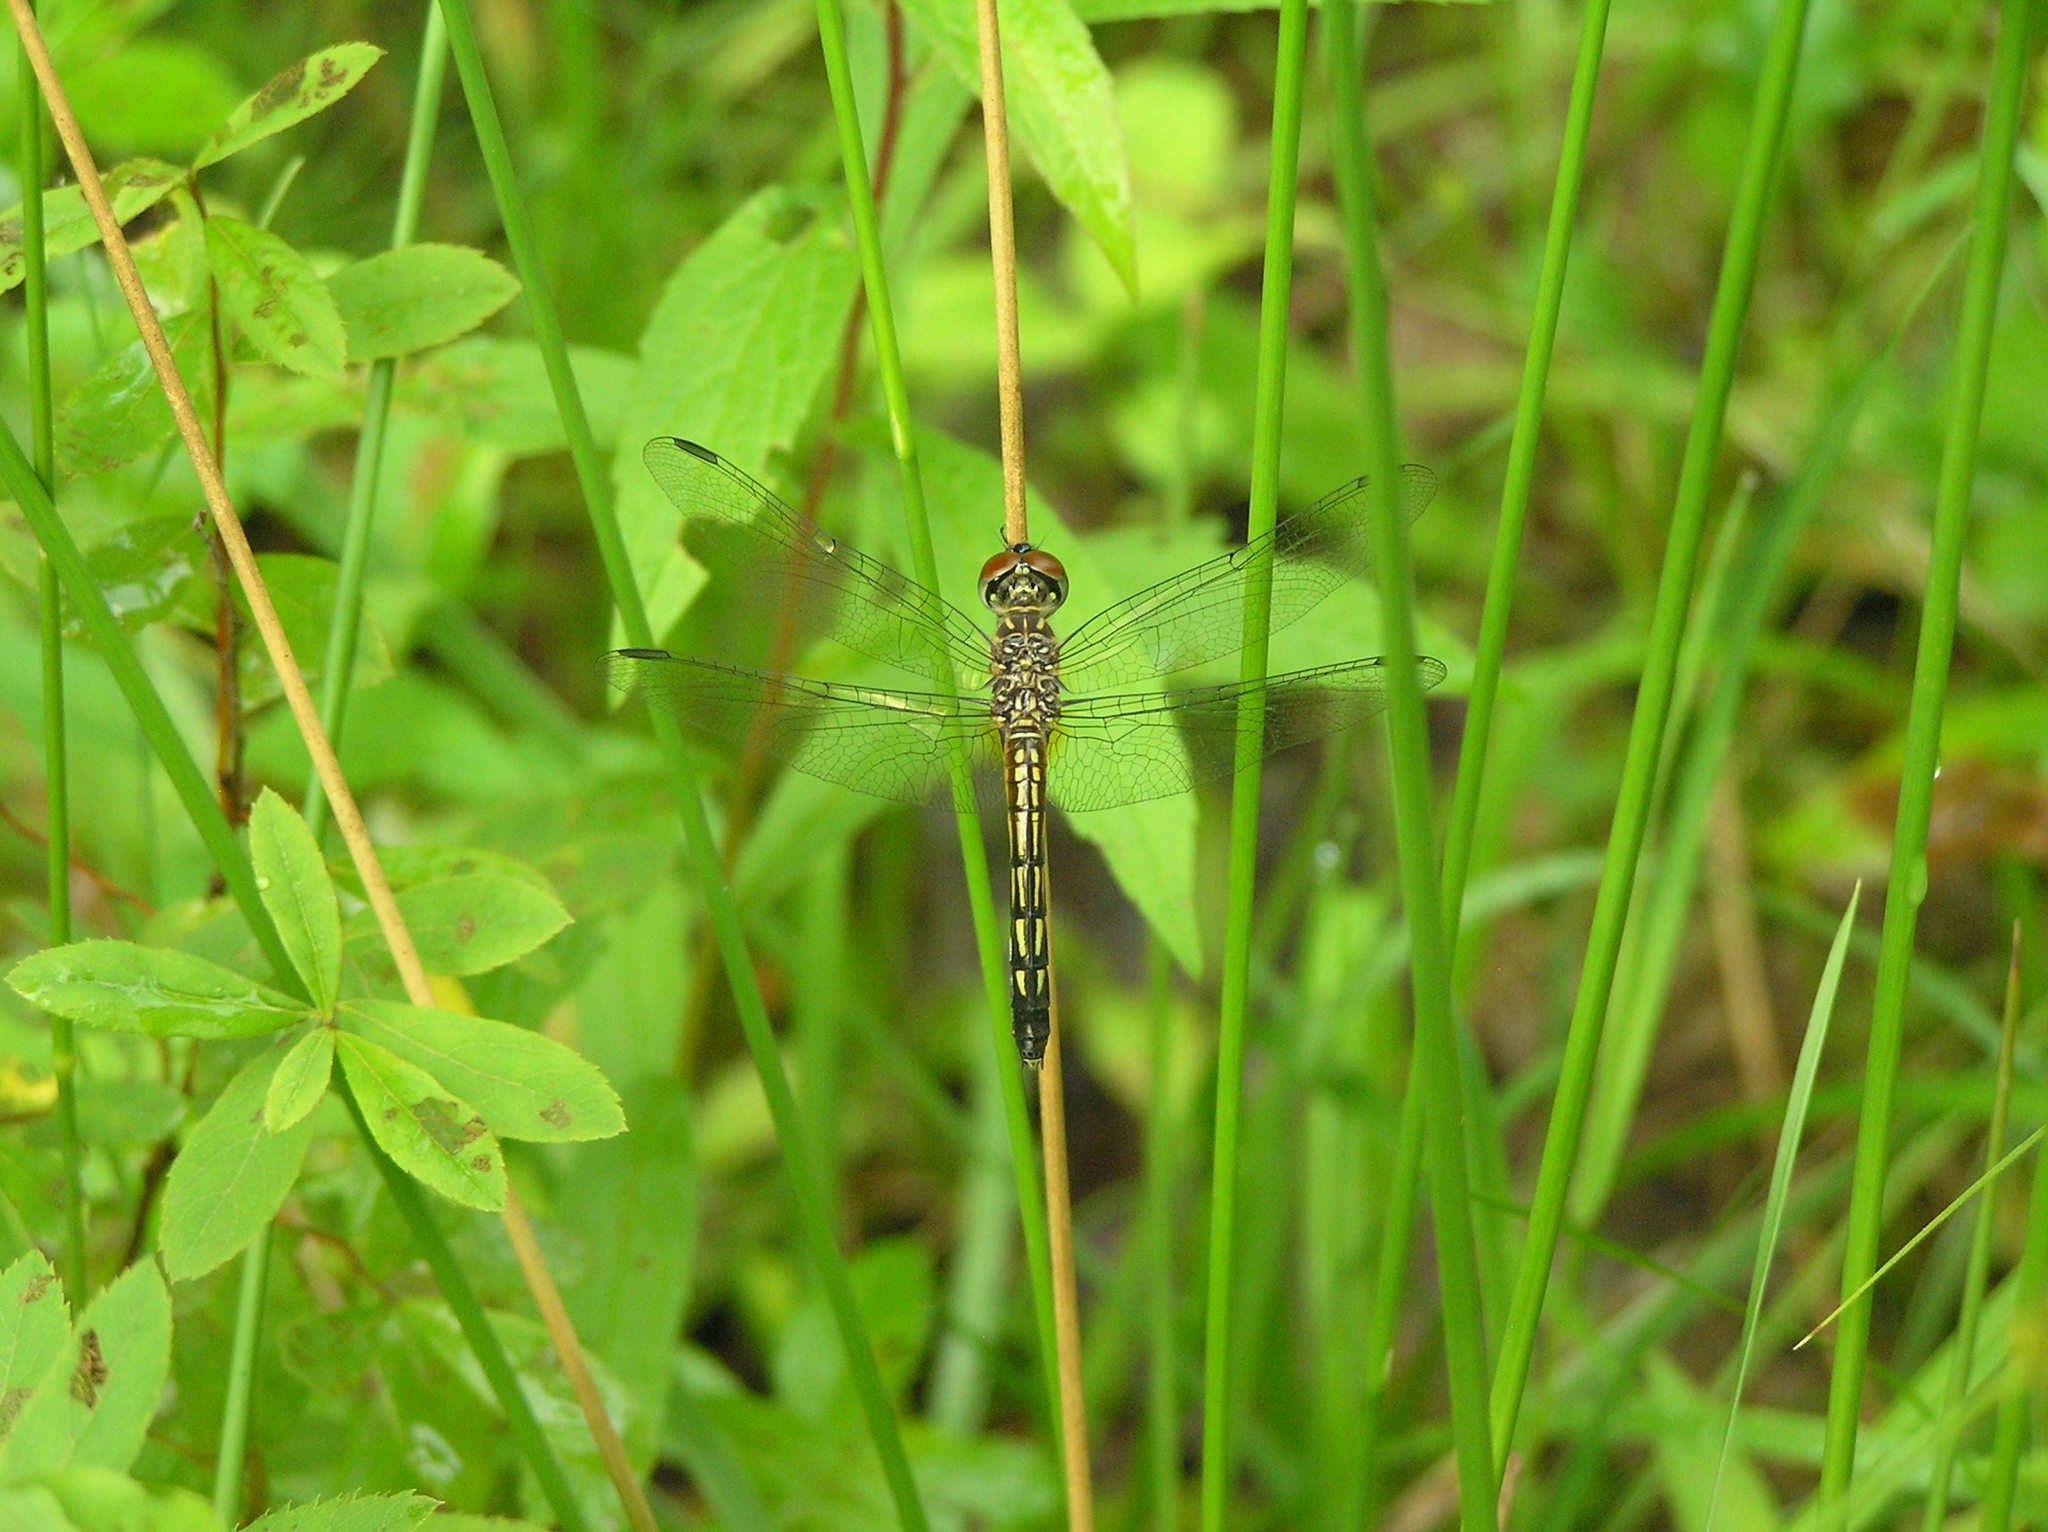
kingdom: Animalia
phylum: Arthropoda
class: Insecta
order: Odonata
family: Libellulidae
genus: Pachydiplax
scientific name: Pachydiplax longipennis
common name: Blue dasher
